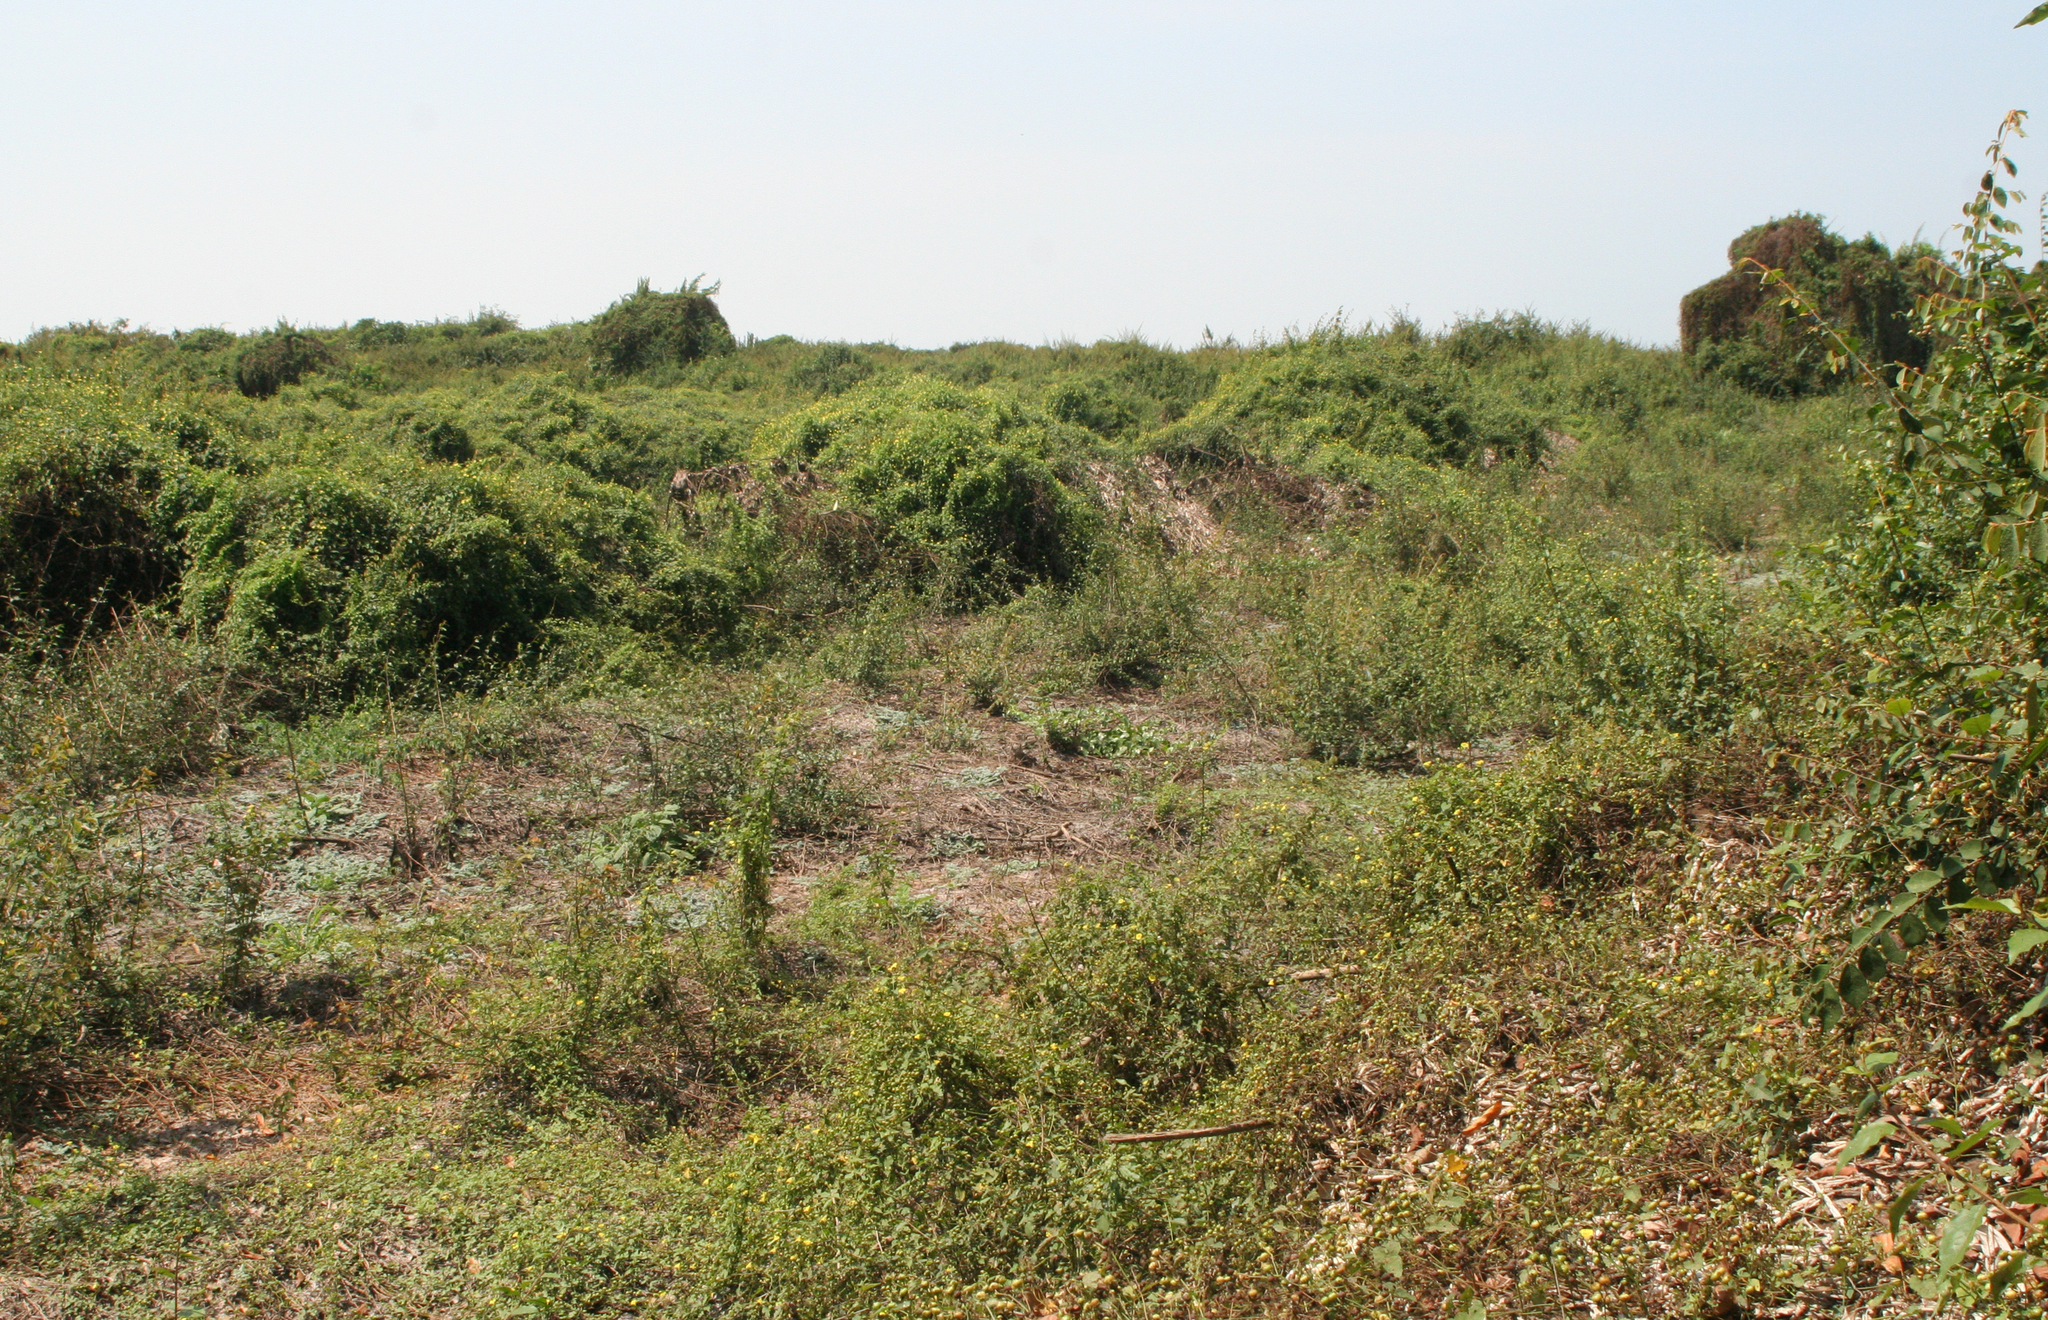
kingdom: Plantae
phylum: Tracheophyta
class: Magnoliopsida
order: Solanales
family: Convolvulaceae
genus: Merremia
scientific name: Merremia hederacea
